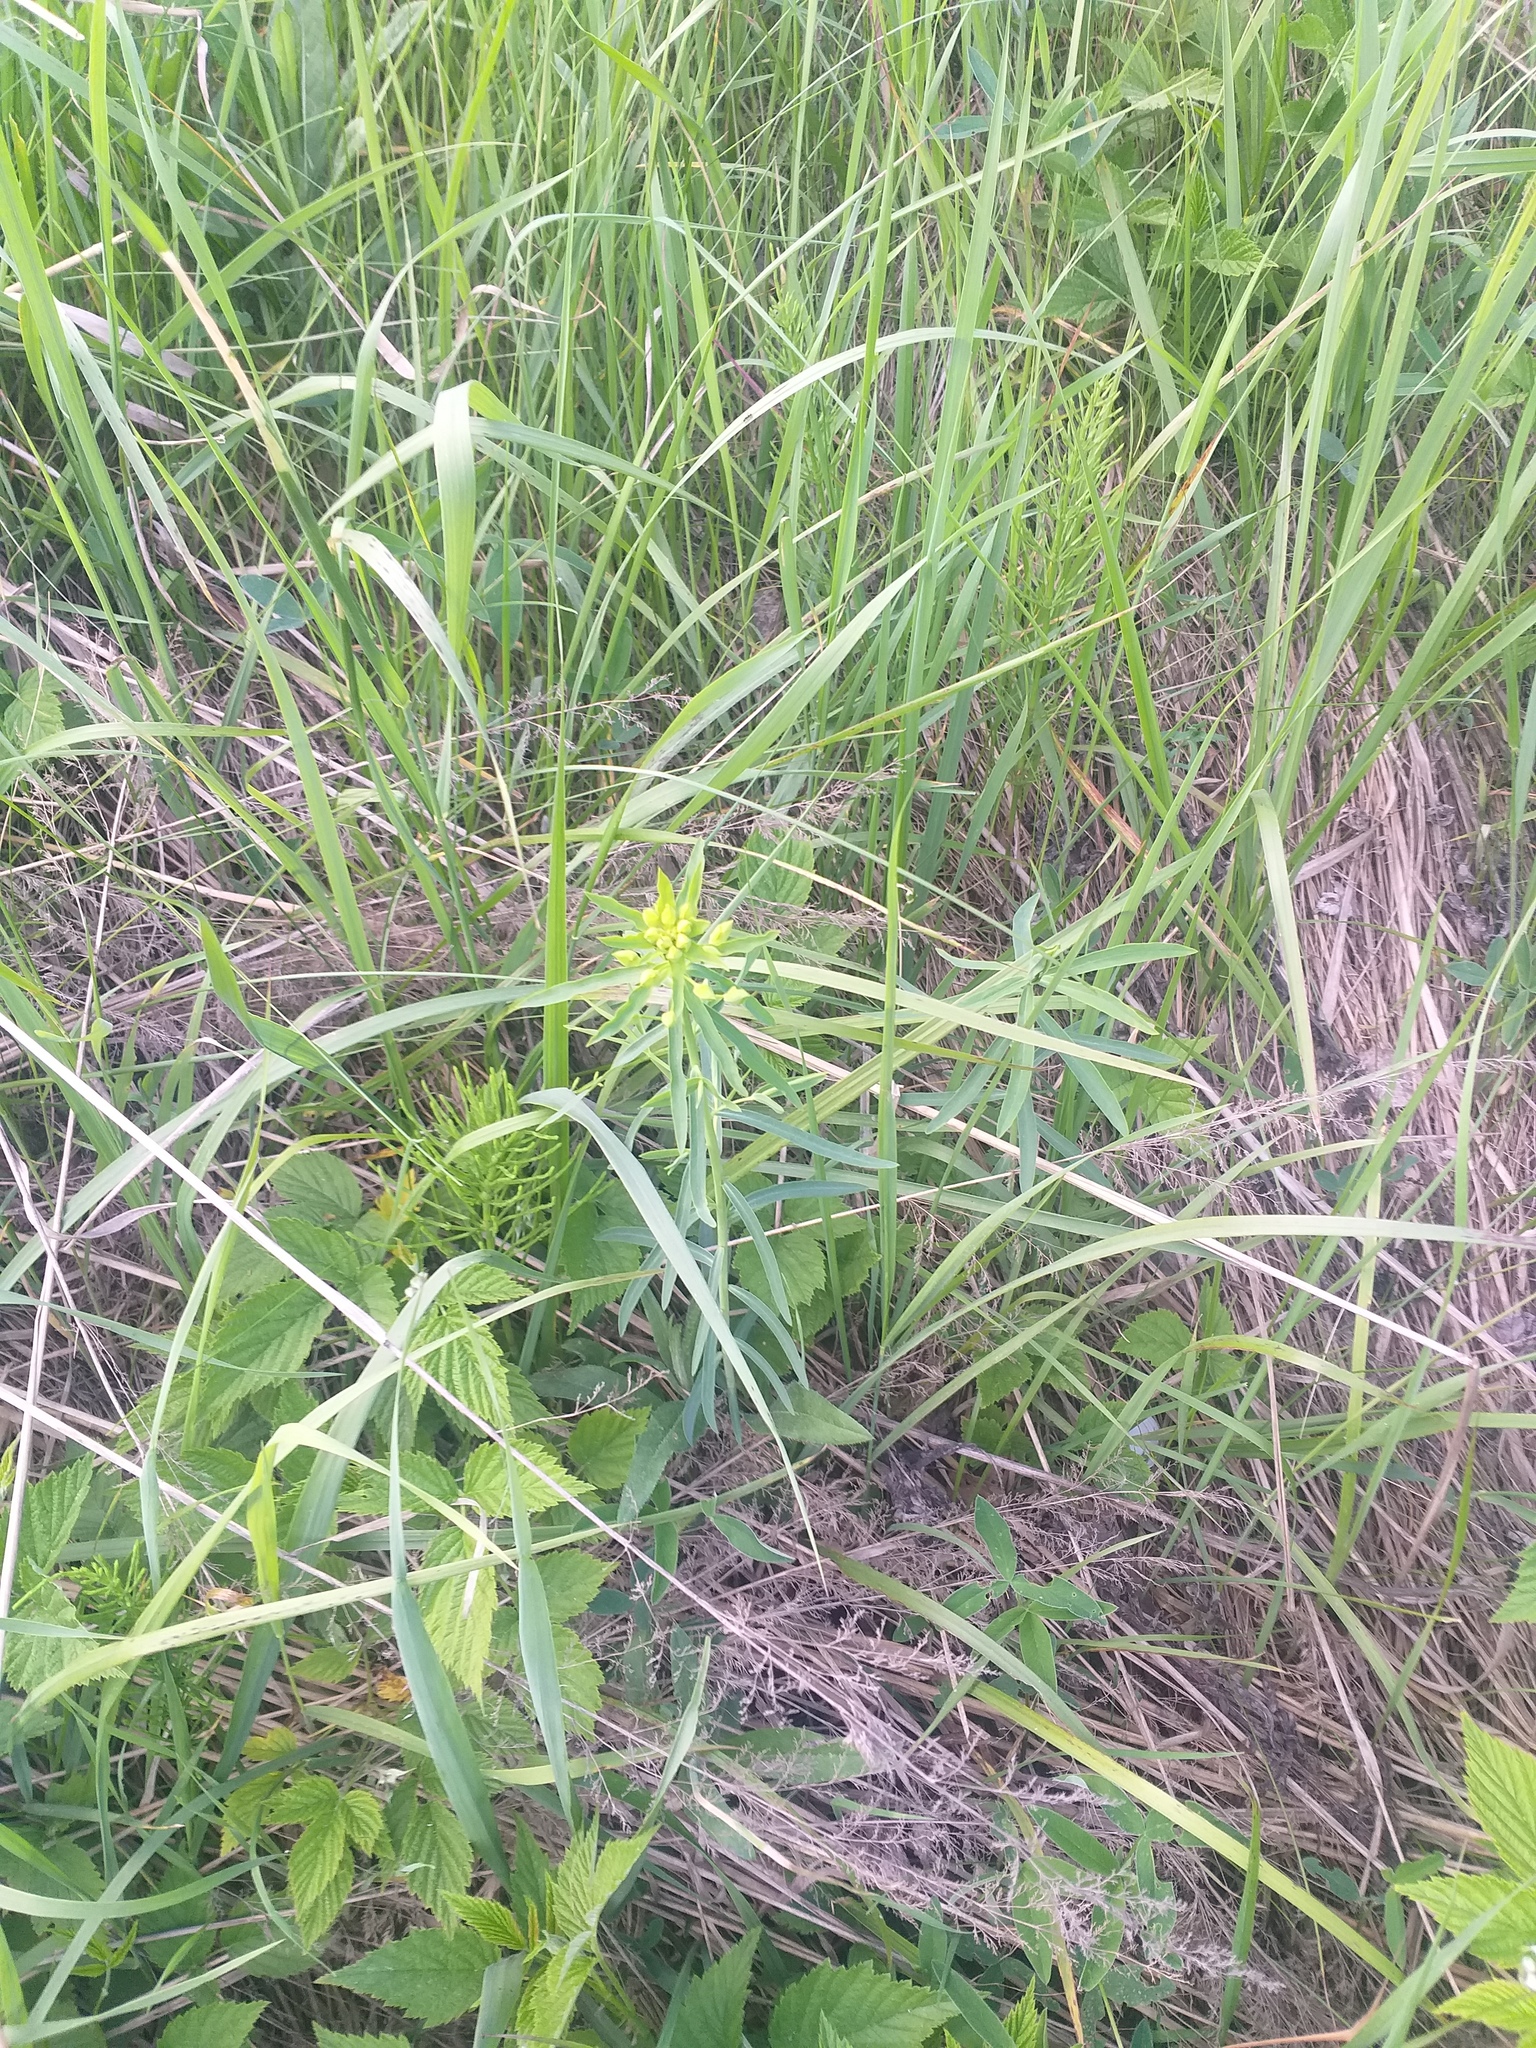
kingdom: Plantae
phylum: Tracheophyta
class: Magnoliopsida
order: Malpighiales
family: Euphorbiaceae
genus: Euphorbia
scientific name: Euphorbia virgata
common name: Leafy spurge
